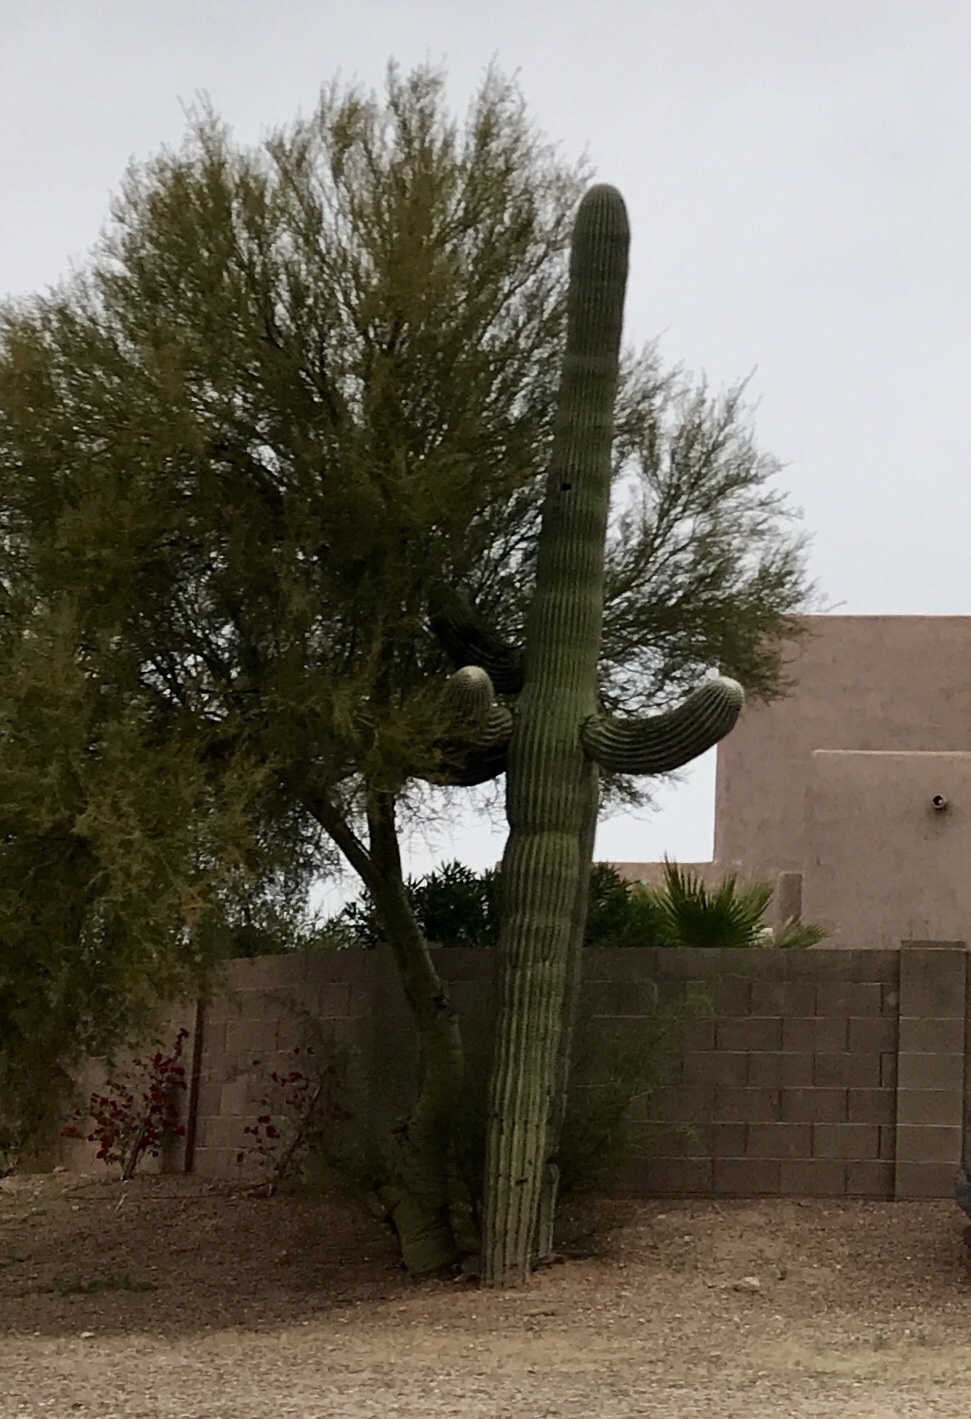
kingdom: Plantae
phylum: Tracheophyta
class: Magnoliopsida
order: Caryophyllales
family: Cactaceae
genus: Carnegiea
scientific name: Carnegiea gigantea
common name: Saguaro
